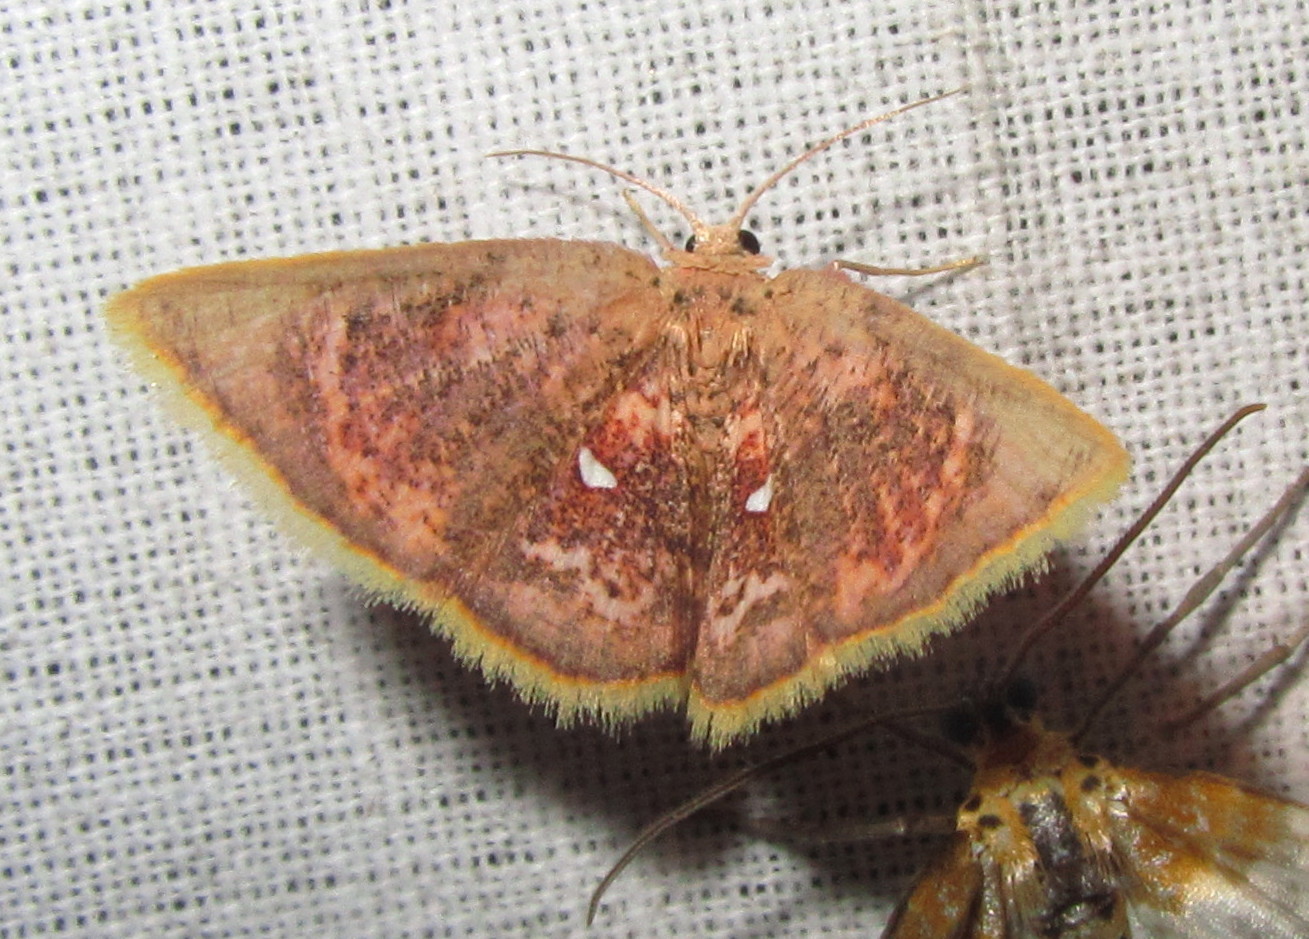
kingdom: Animalia
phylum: Arthropoda
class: Insecta
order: Lepidoptera
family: Geometridae
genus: Chrysocraspeda
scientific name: Chrysocraspeda sanguinea
